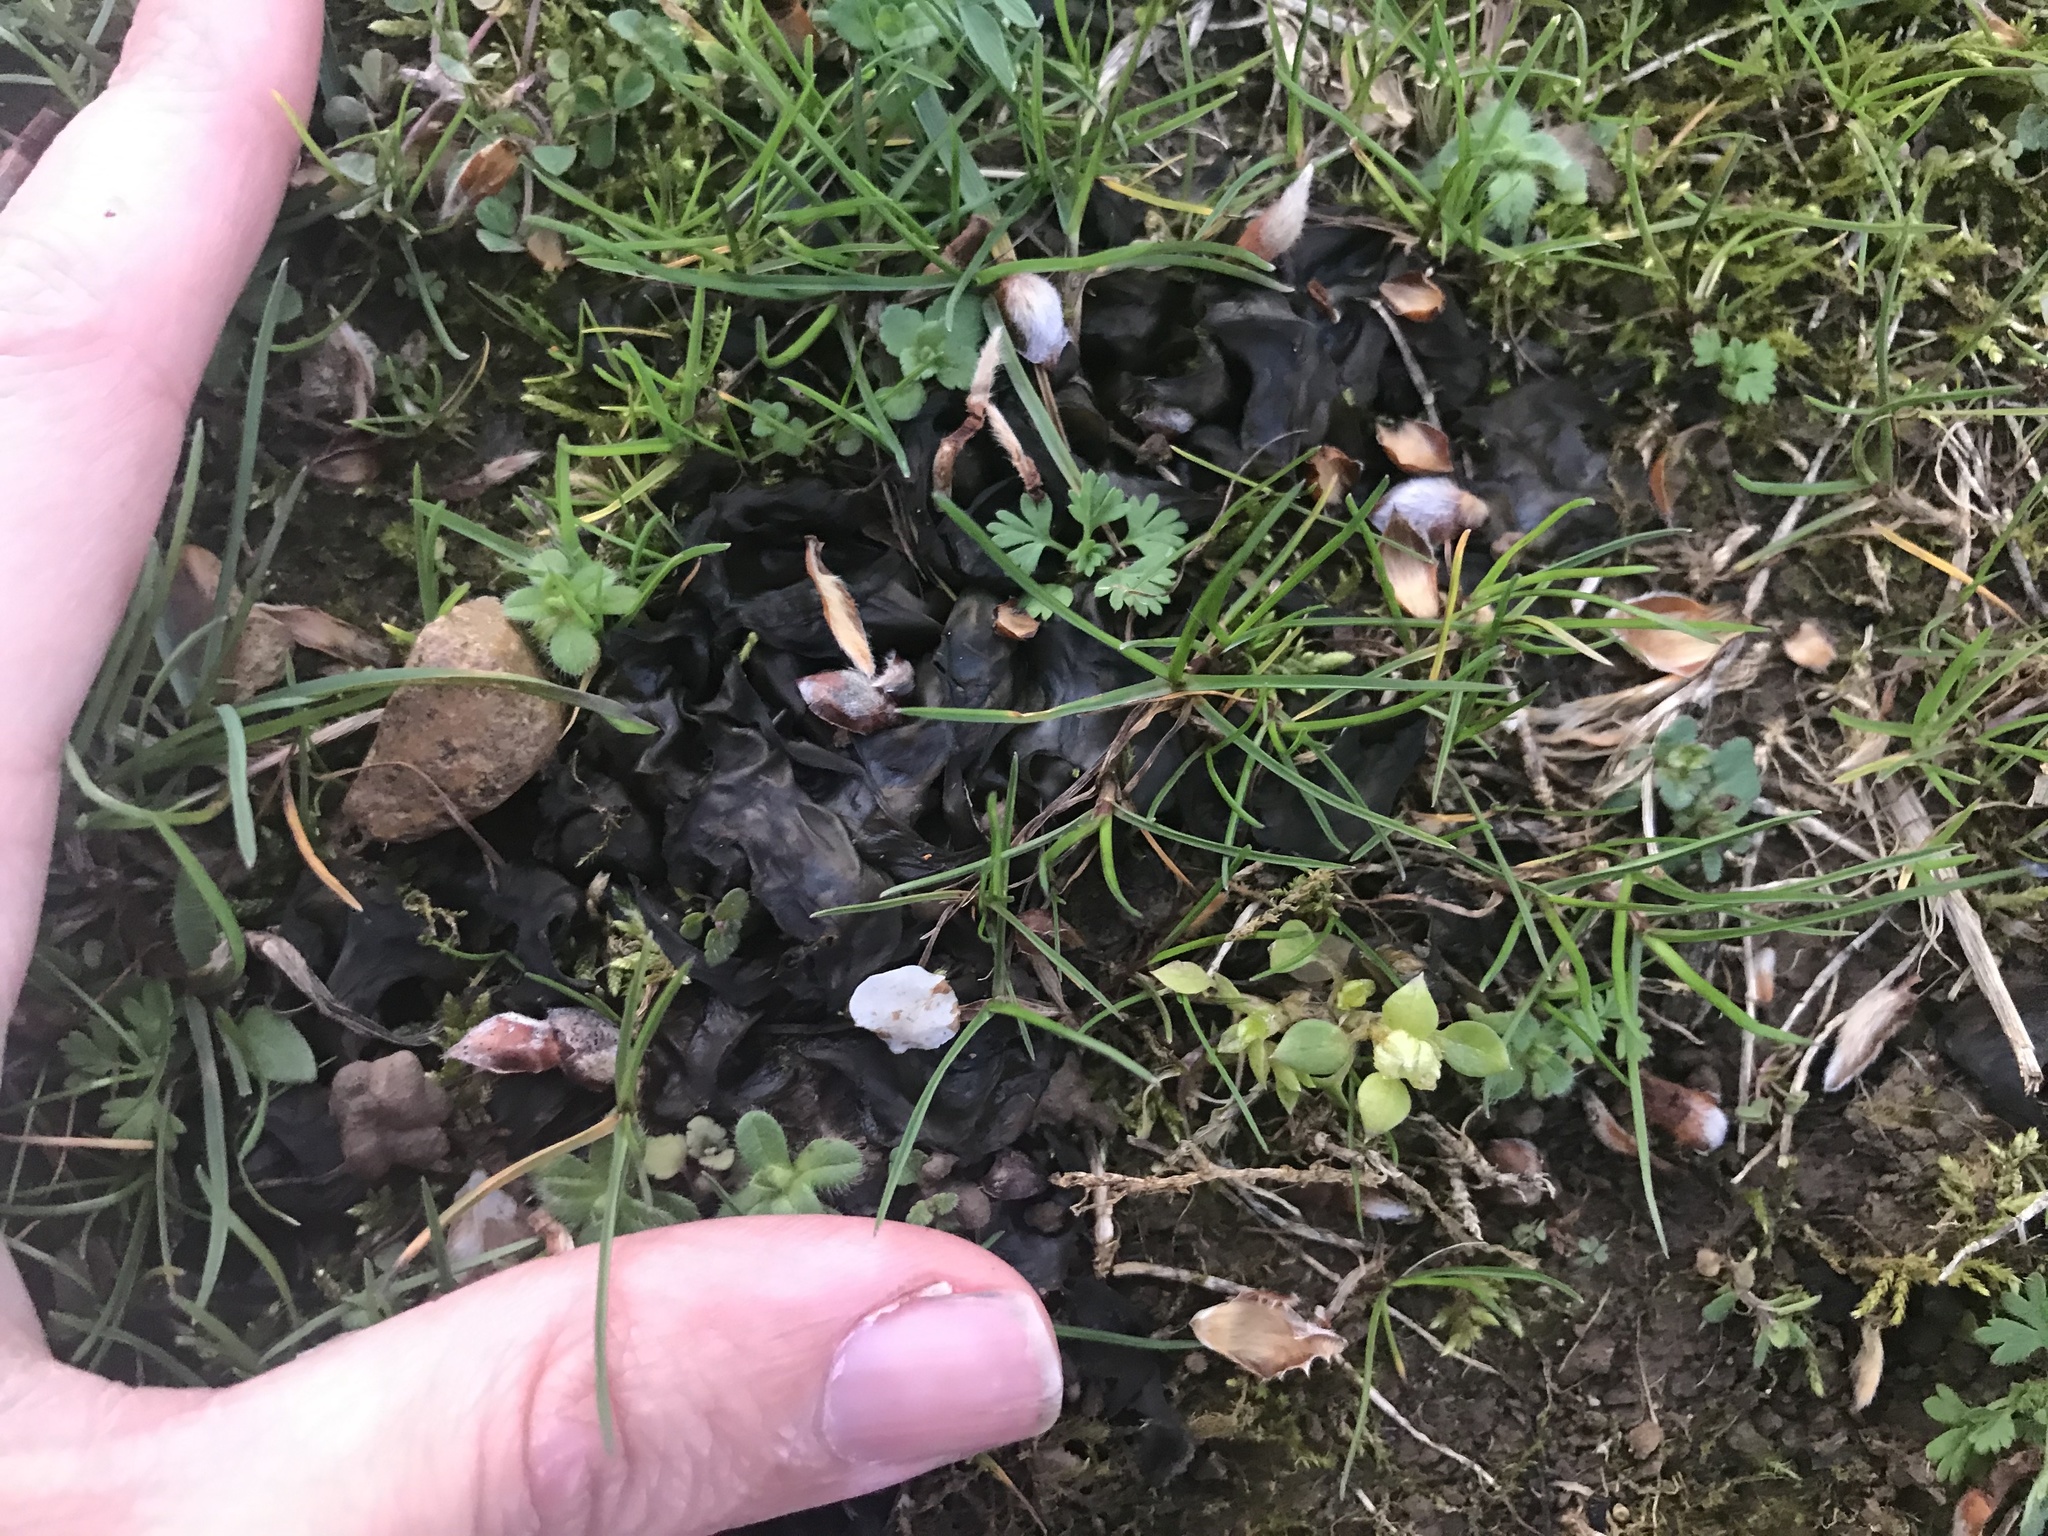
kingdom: Bacteria
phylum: Cyanobacteria
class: Cyanobacteriia
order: Cyanobacteriales
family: Nostocaceae
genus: Nostoc
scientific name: Nostoc commune
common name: Star jelly
